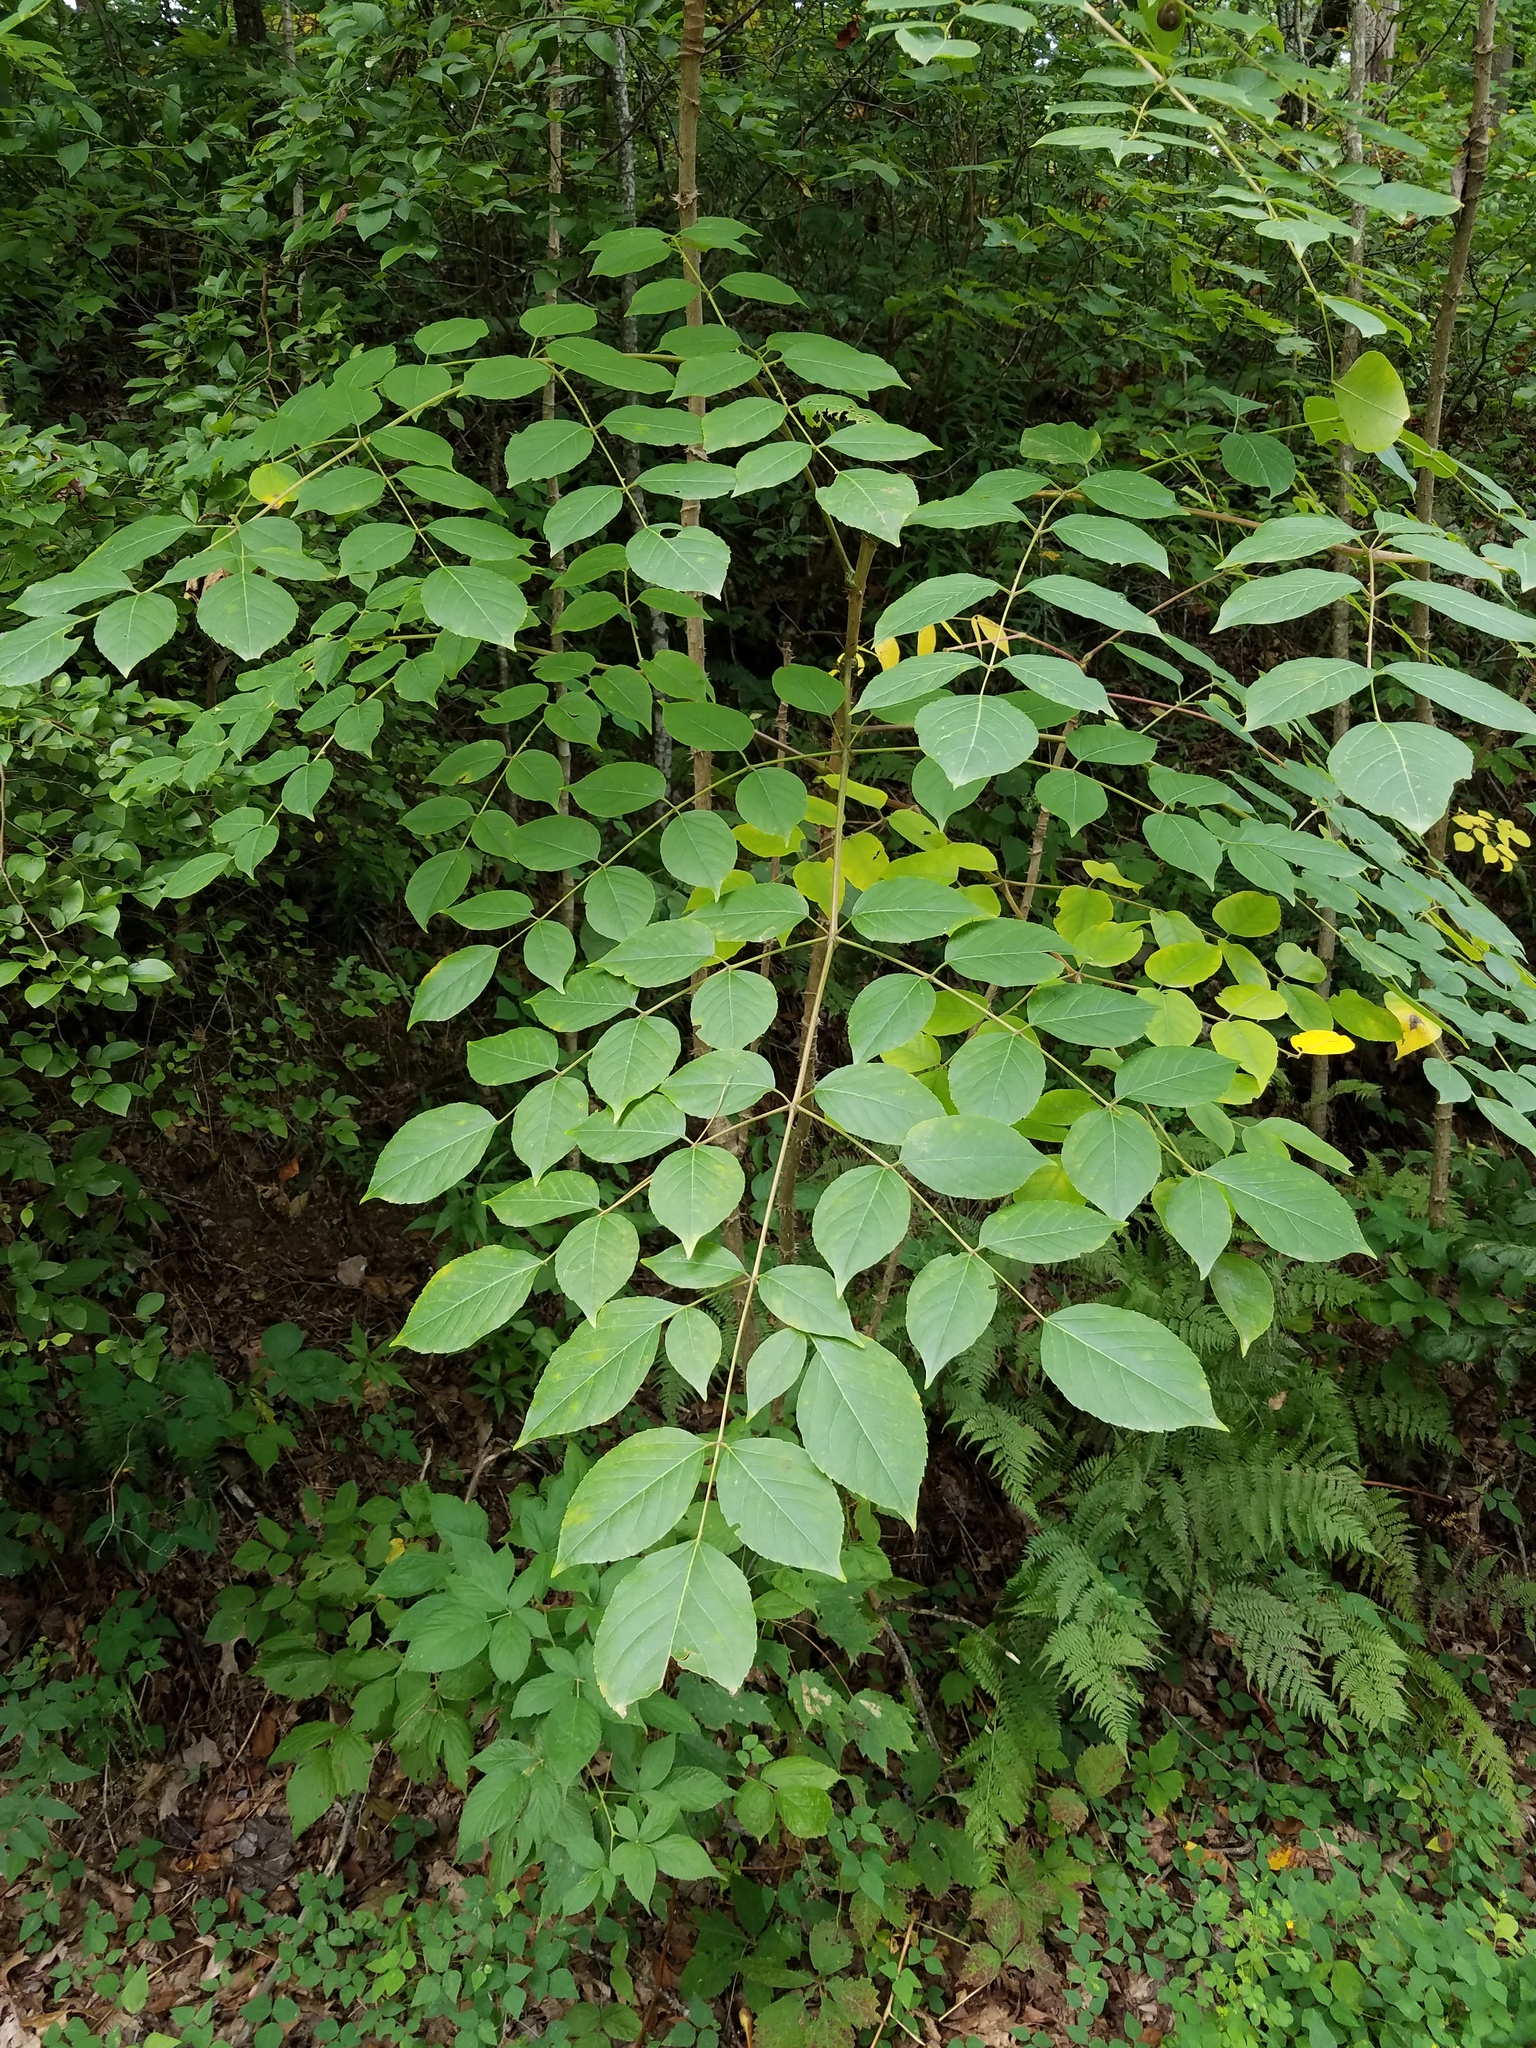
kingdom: Plantae
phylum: Tracheophyta
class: Magnoliopsida
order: Apiales
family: Araliaceae
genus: Aralia
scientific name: Aralia spinosa
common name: Hercules'-club
